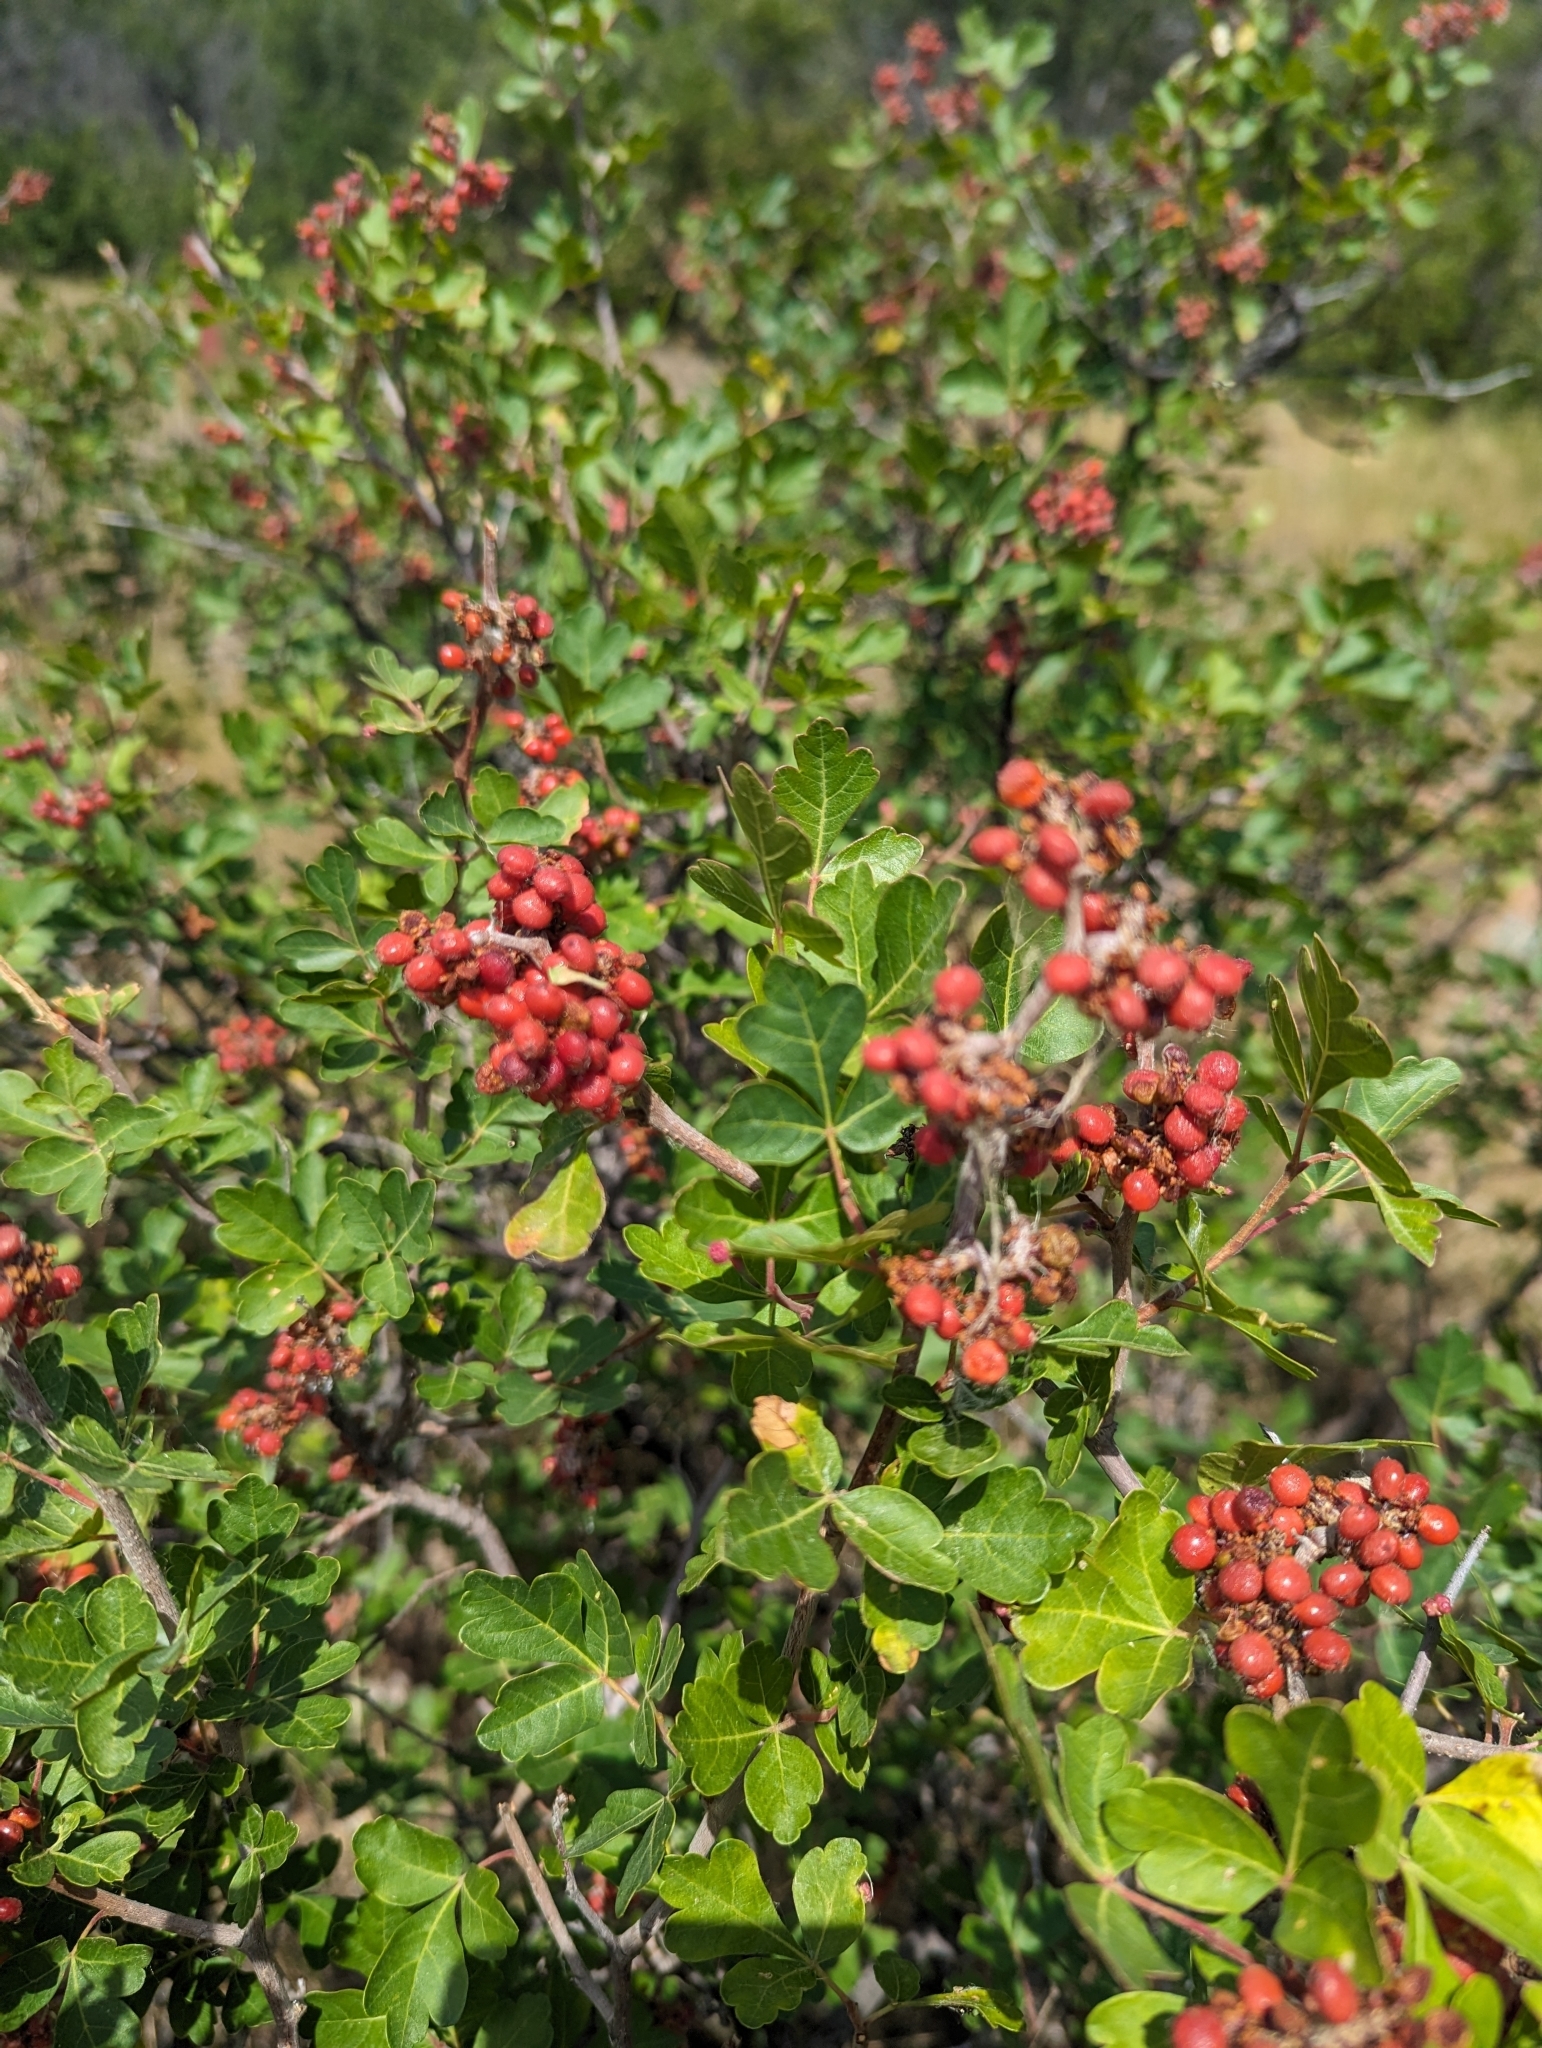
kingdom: Plantae
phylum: Tracheophyta
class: Magnoliopsida
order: Sapindales
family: Anacardiaceae
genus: Rhus
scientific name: Rhus aromatica
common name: Aromatic sumac
